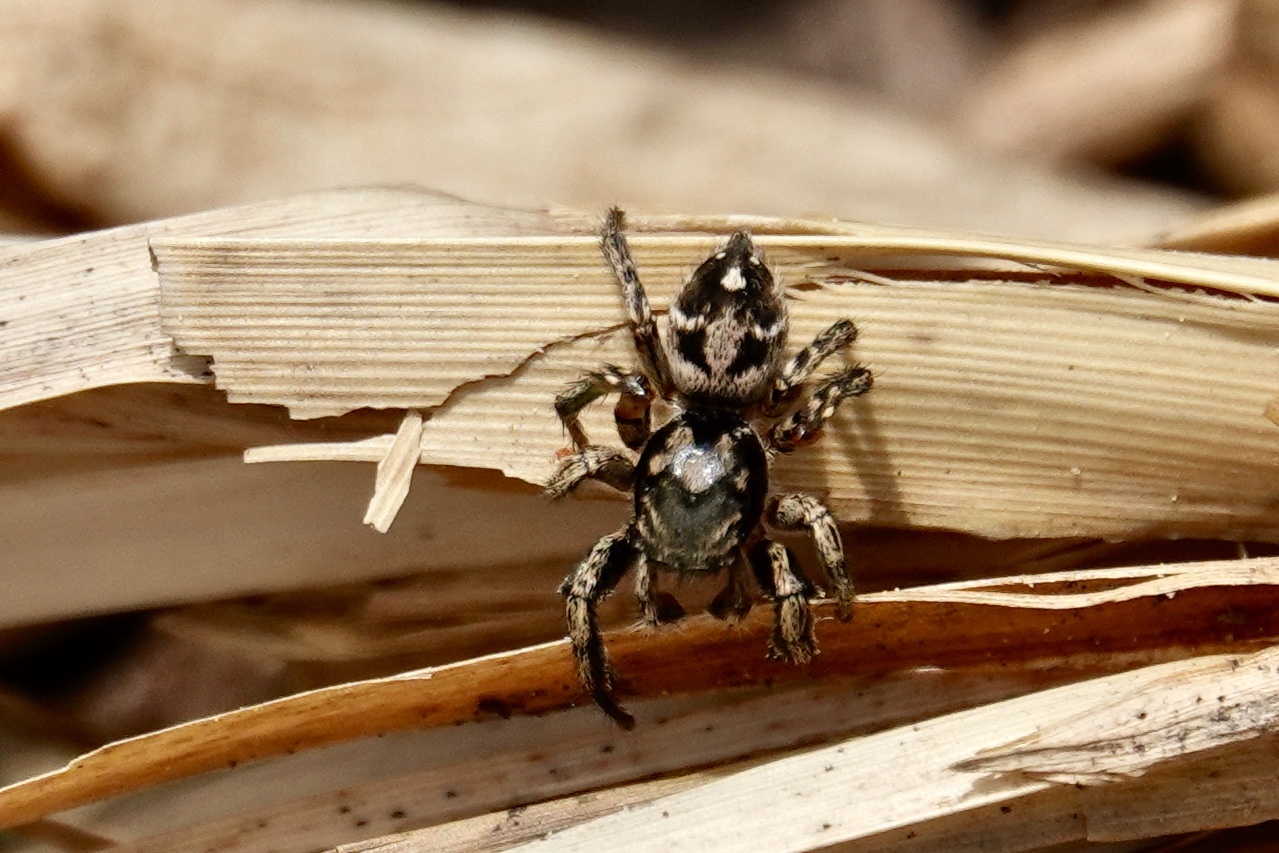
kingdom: Animalia
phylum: Arthropoda
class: Arachnida
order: Araneae
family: Salticidae
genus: Habronattus
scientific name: Habronattus coecatus
